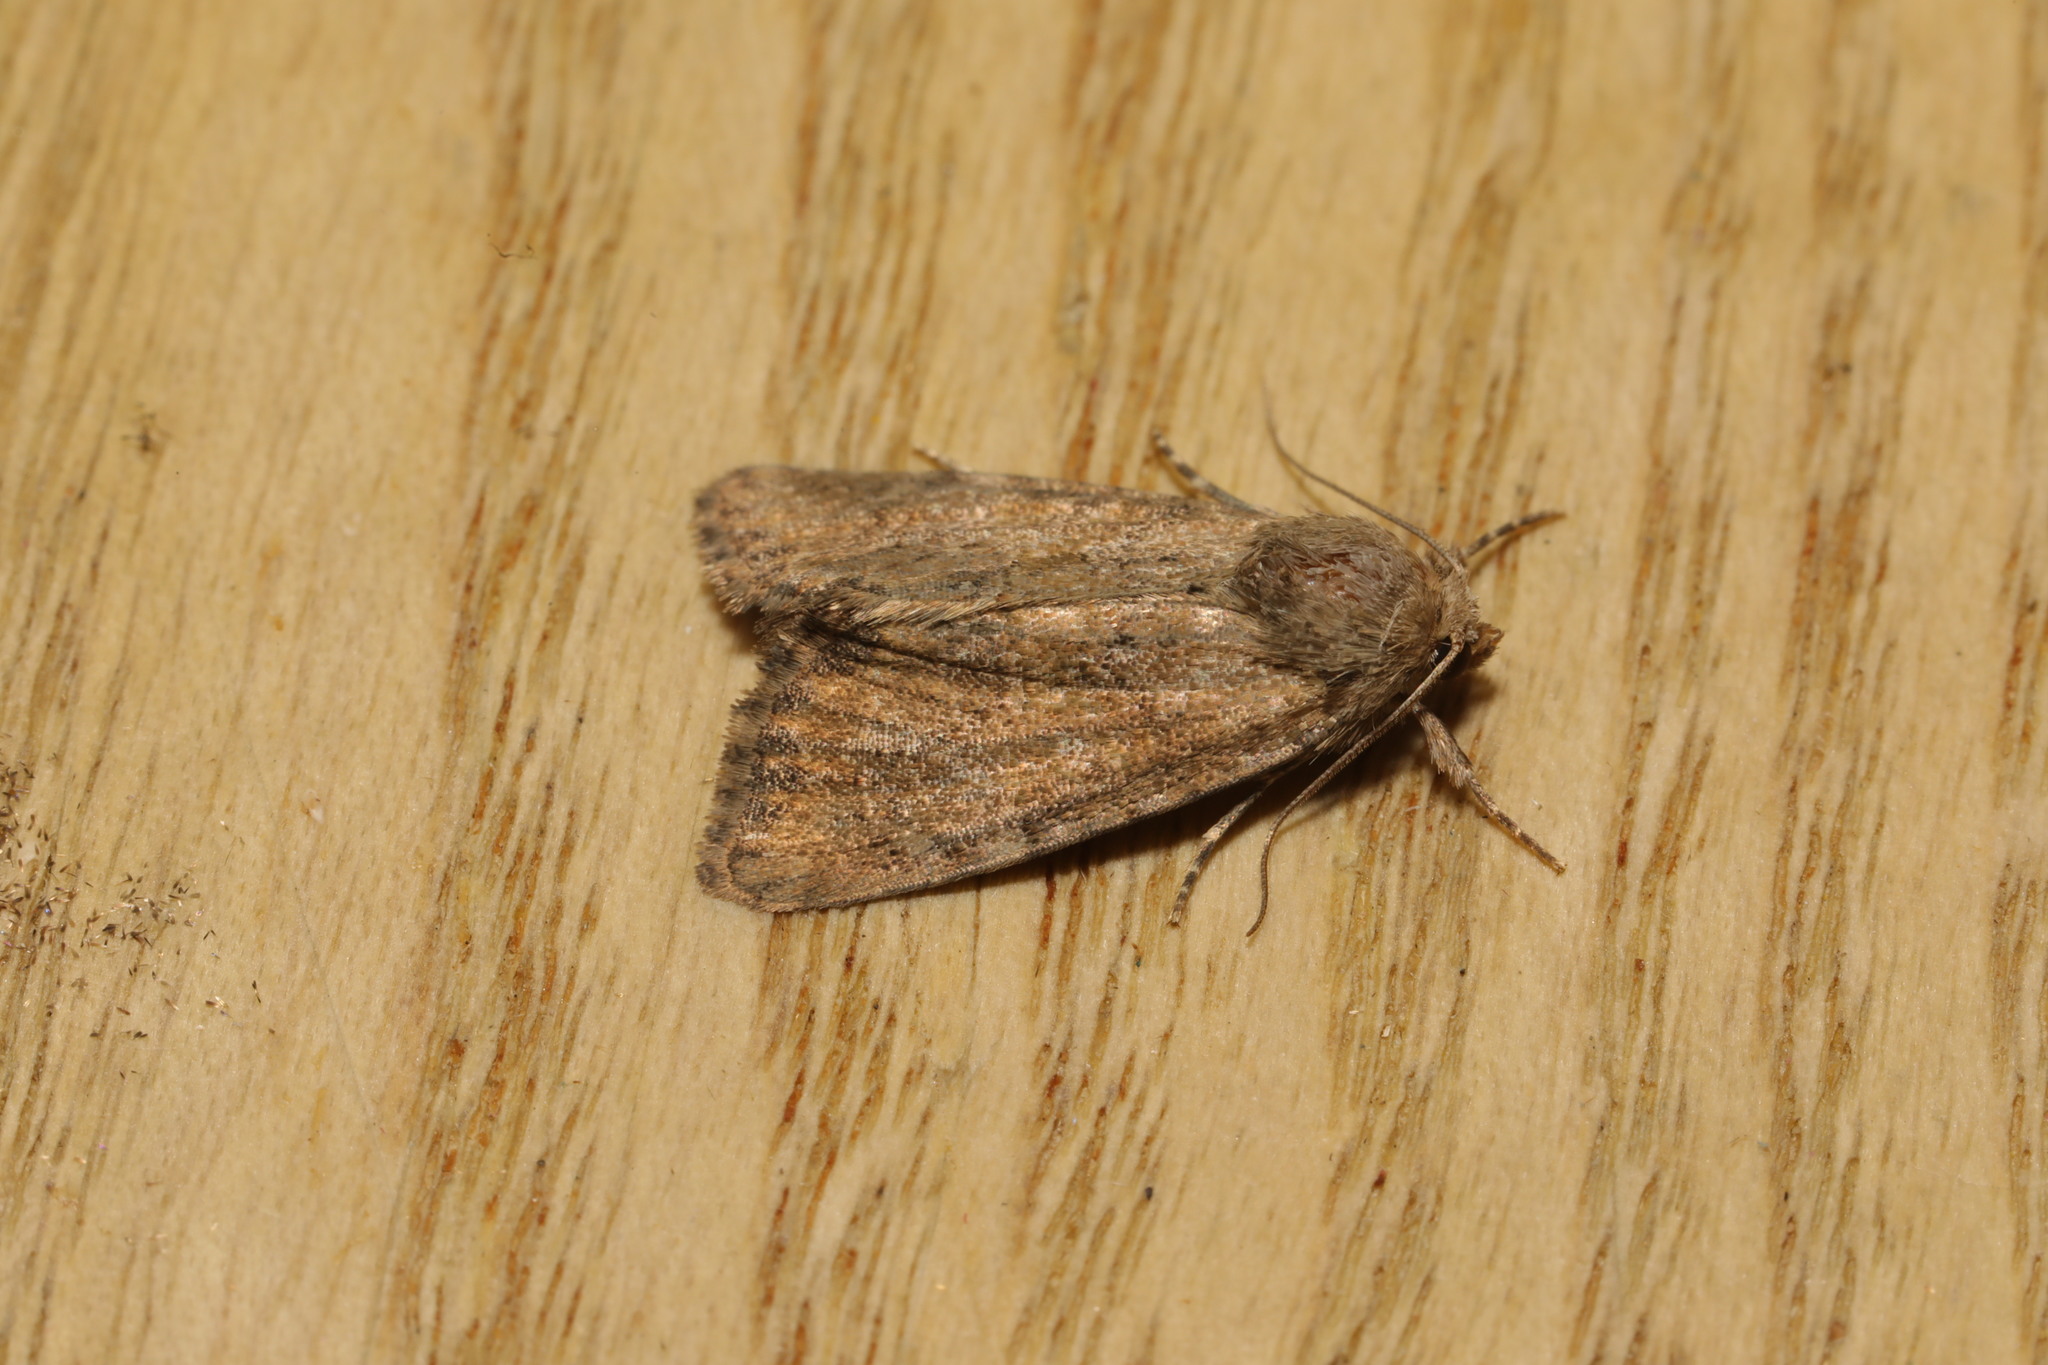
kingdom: Animalia
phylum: Arthropoda
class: Insecta
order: Lepidoptera
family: Noctuidae
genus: Mesoligia
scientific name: Mesoligia furuncula
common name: Cloaked minor
